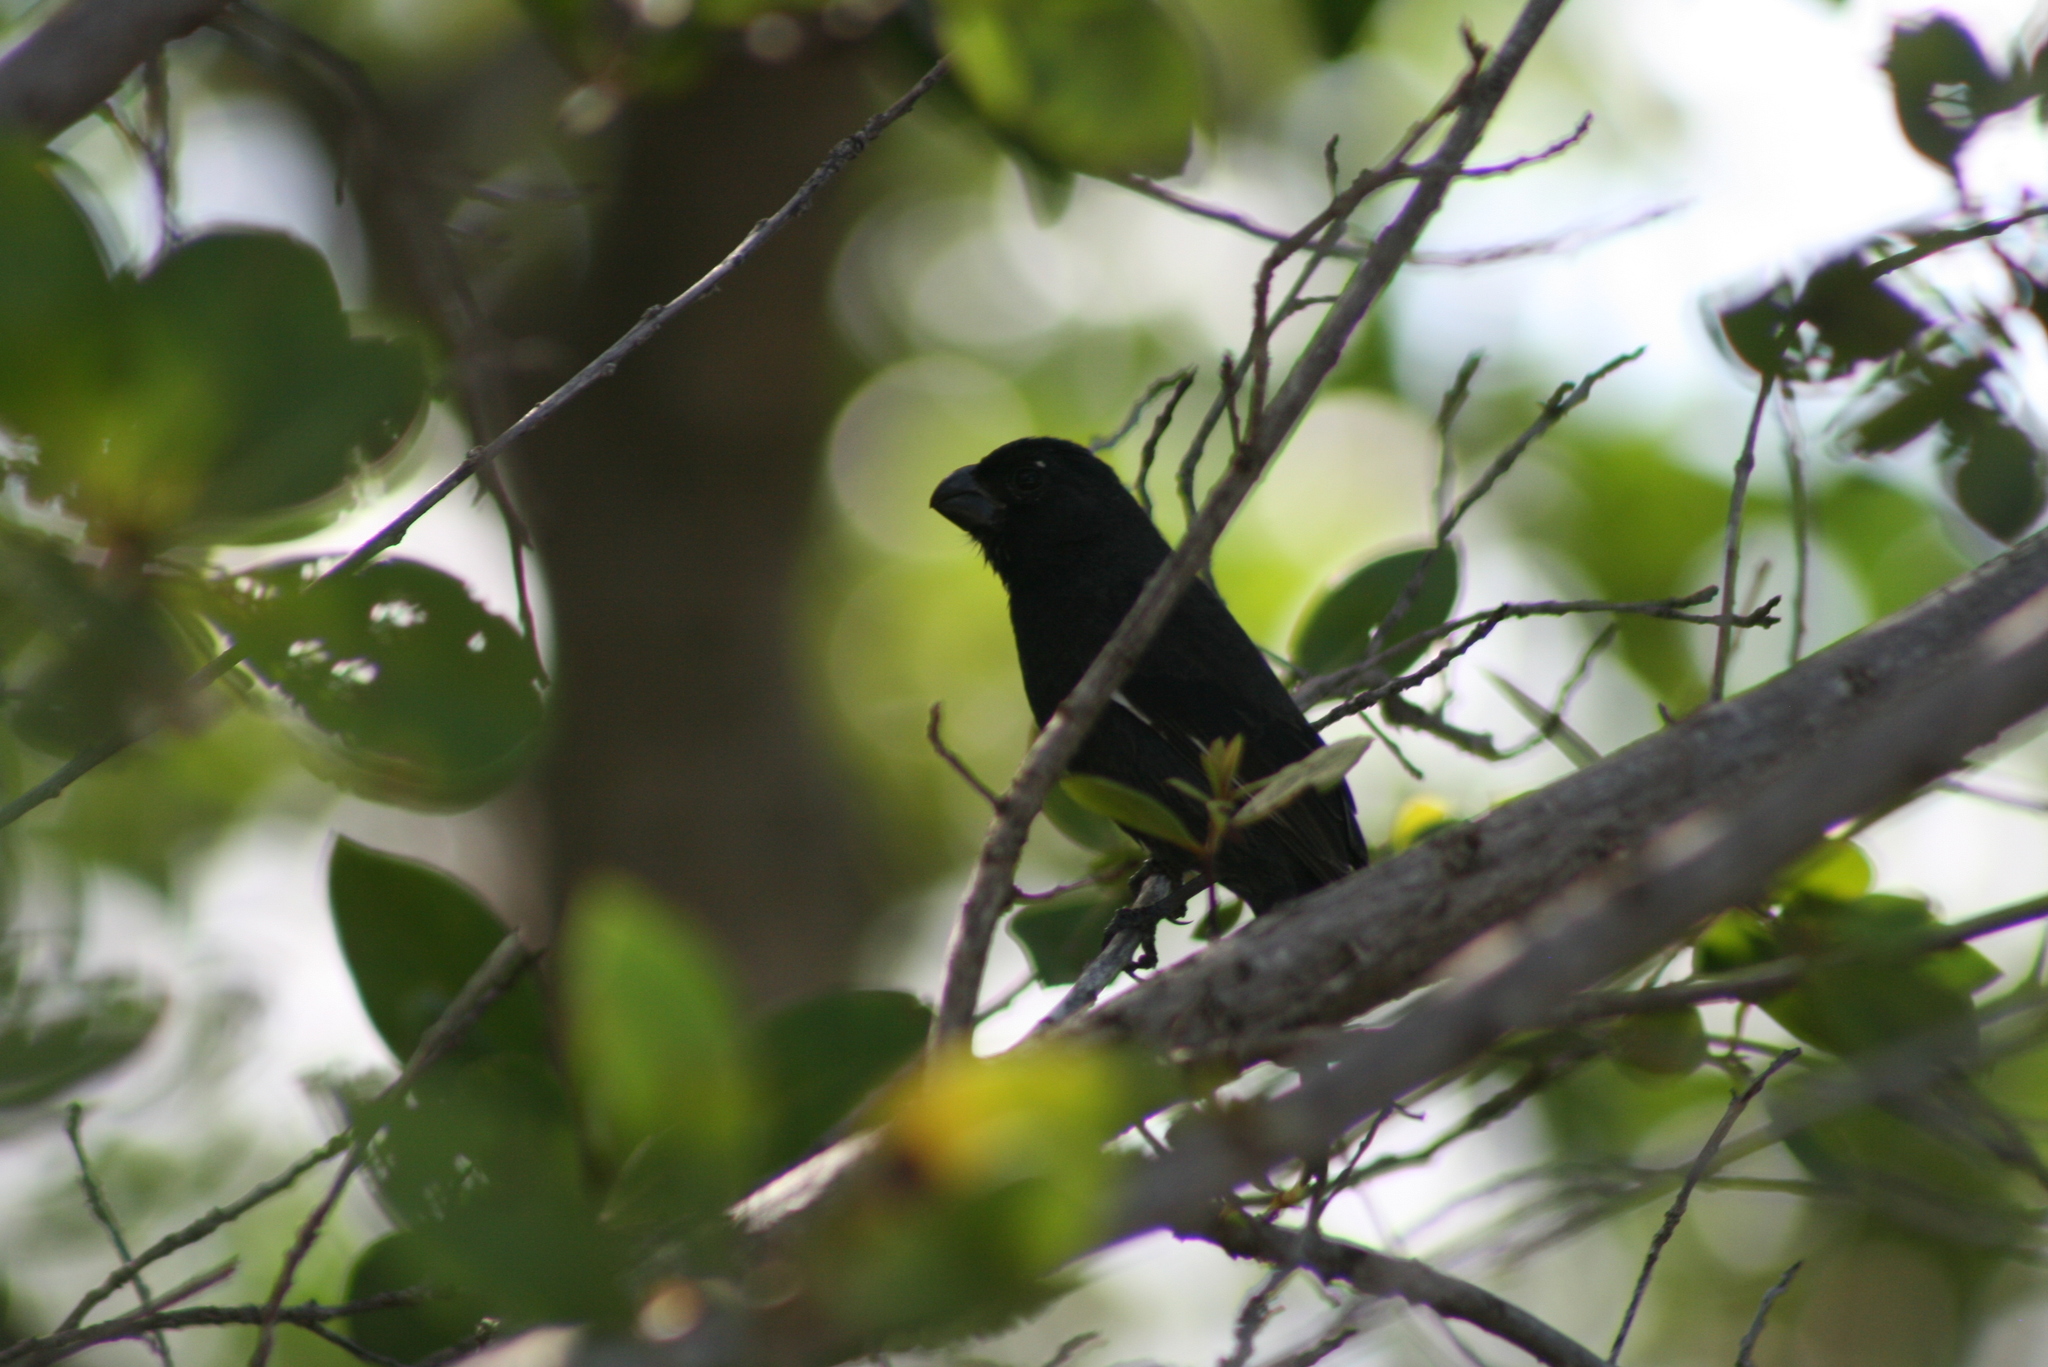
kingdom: Animalia
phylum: Chordata
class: Aves
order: Passeriformes
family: Thraupidae
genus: Melopyrrha
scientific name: Melopyrrha nigra
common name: Cuban bullfinch
